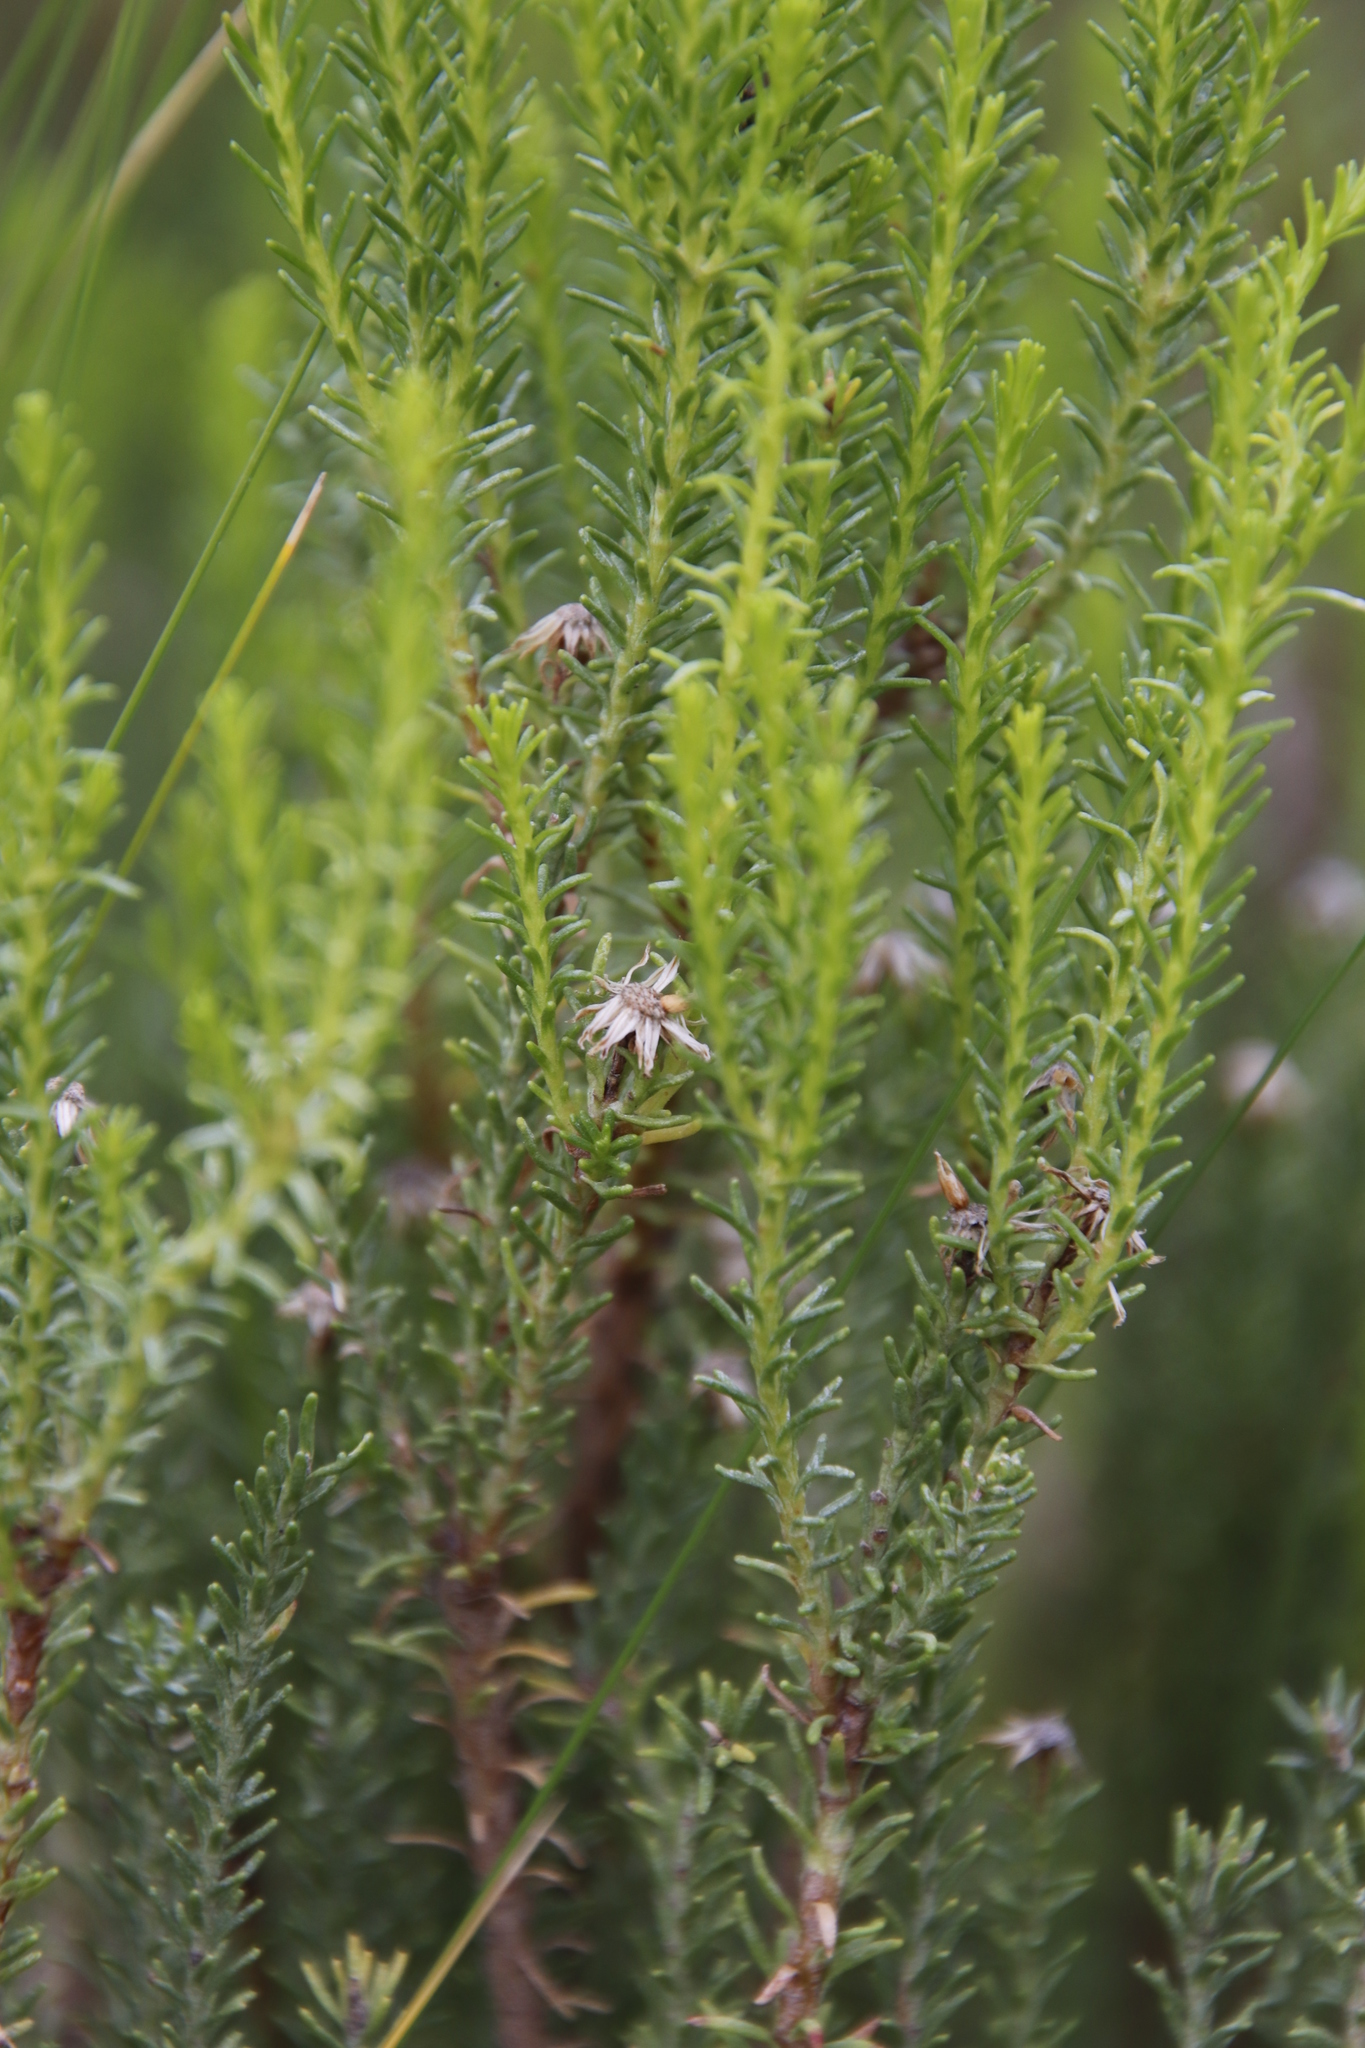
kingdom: Plantae
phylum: Tracheophyta
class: Magnoliopsida
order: Asterales
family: Asteraceae
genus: Chrysocoma
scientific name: Chrysocoma ciliata
